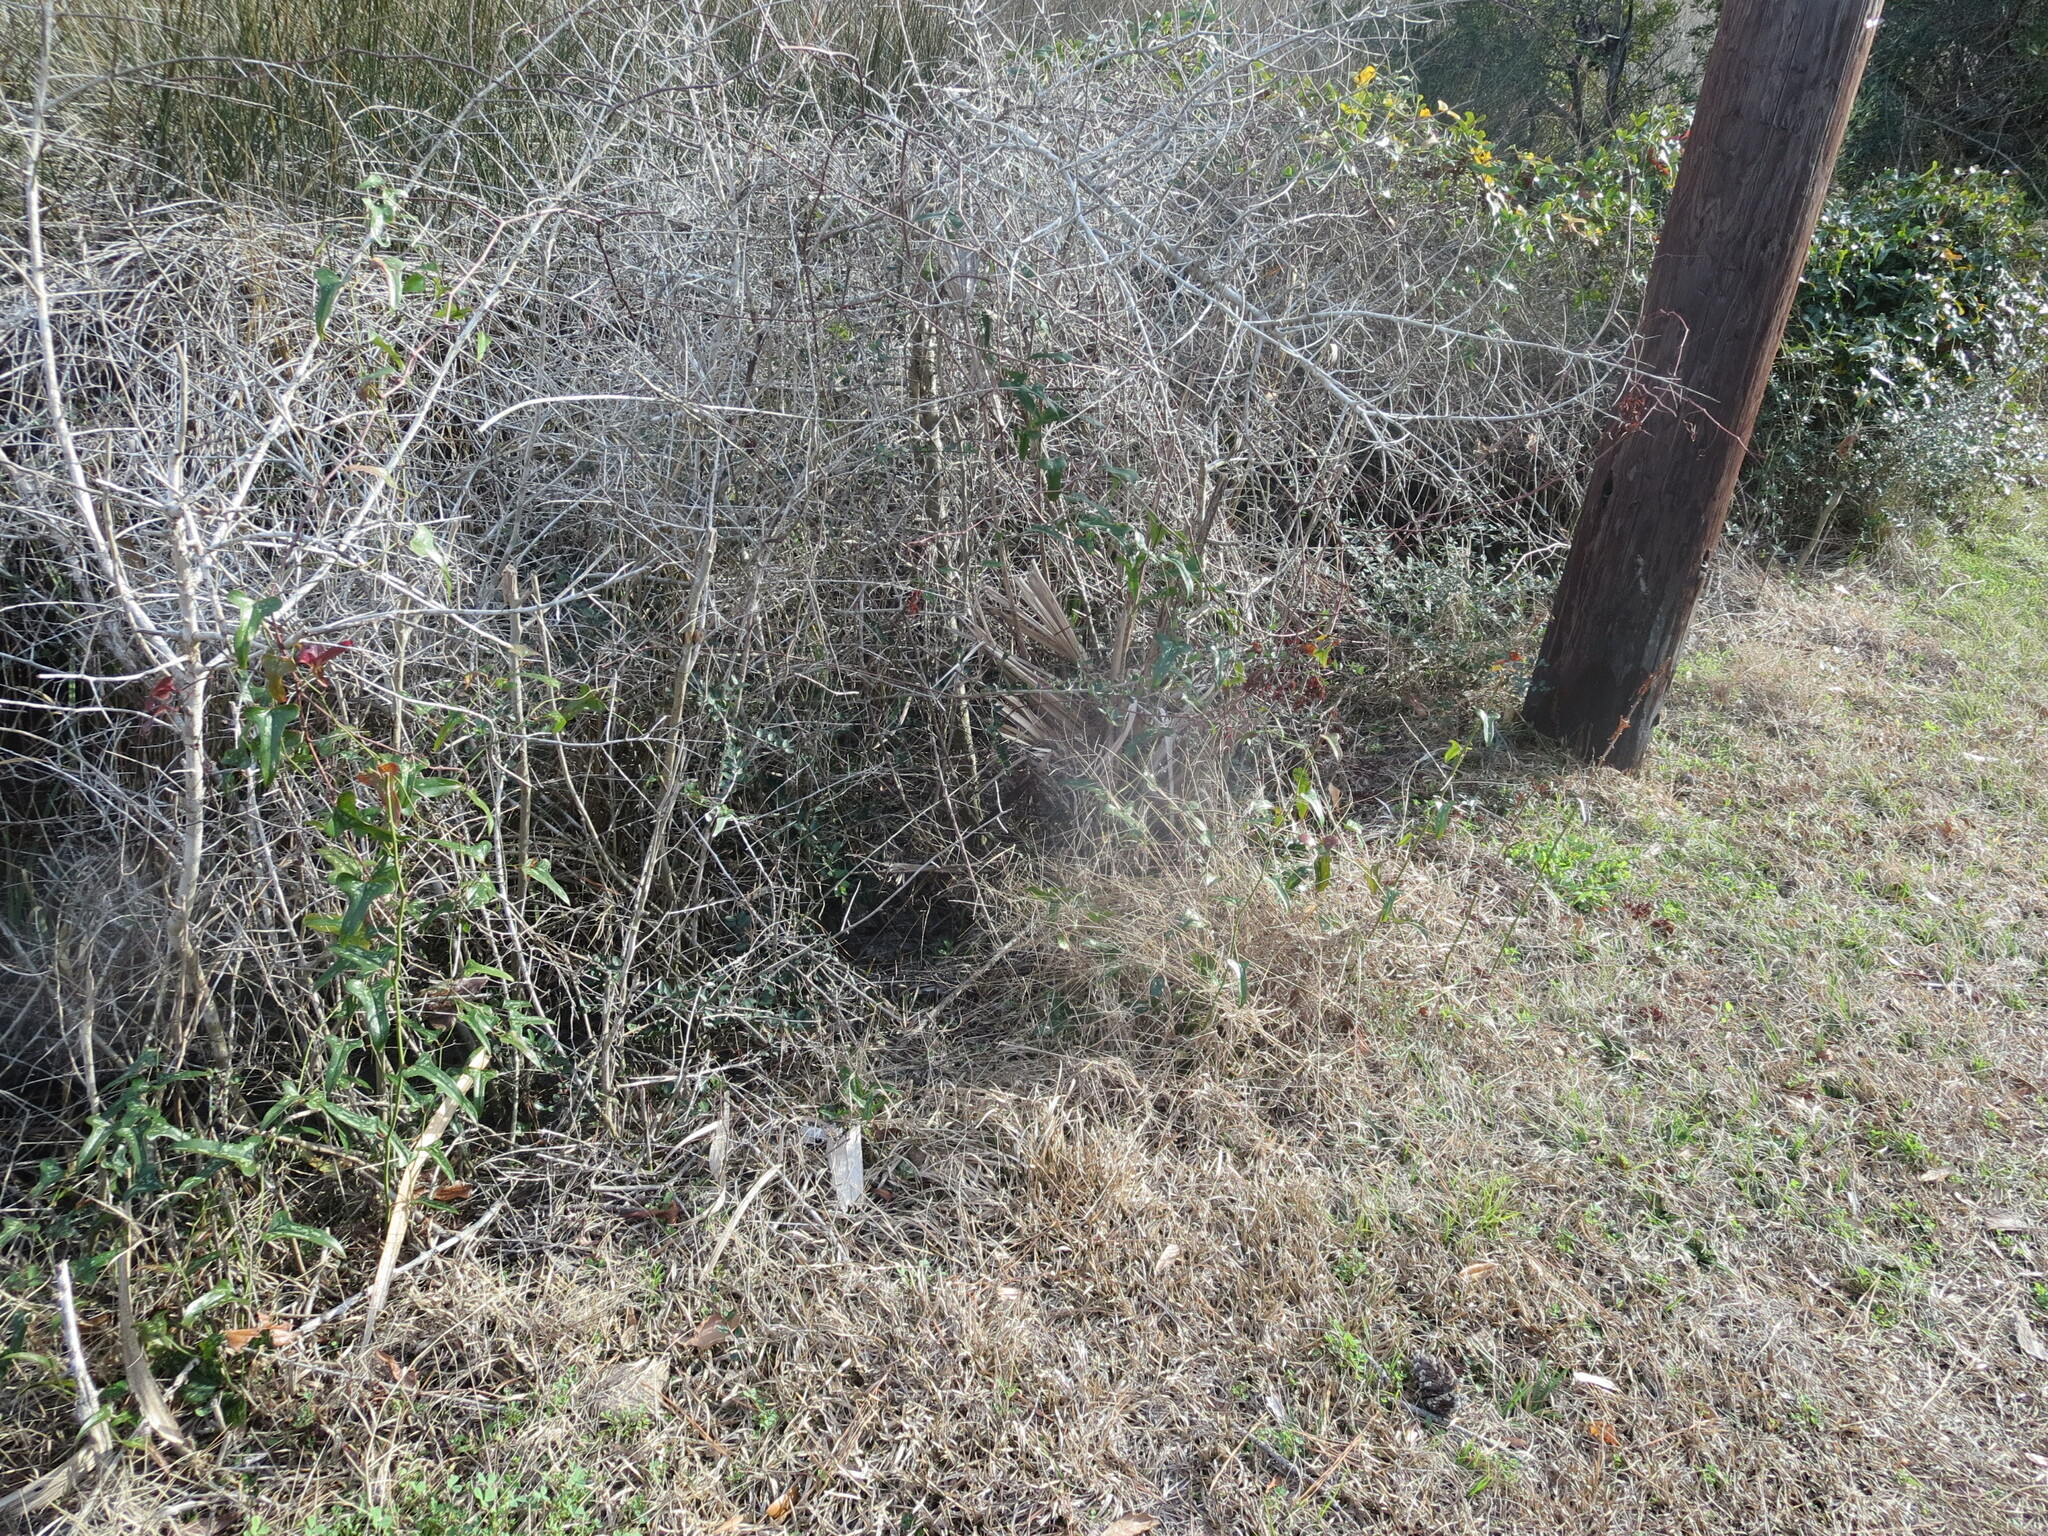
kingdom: Plantae
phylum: Tracheophyta
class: Liliopsida
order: Liliales
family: Smilacaceae
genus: Smilax
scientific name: Smilax bona-nox
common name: Catbrier
